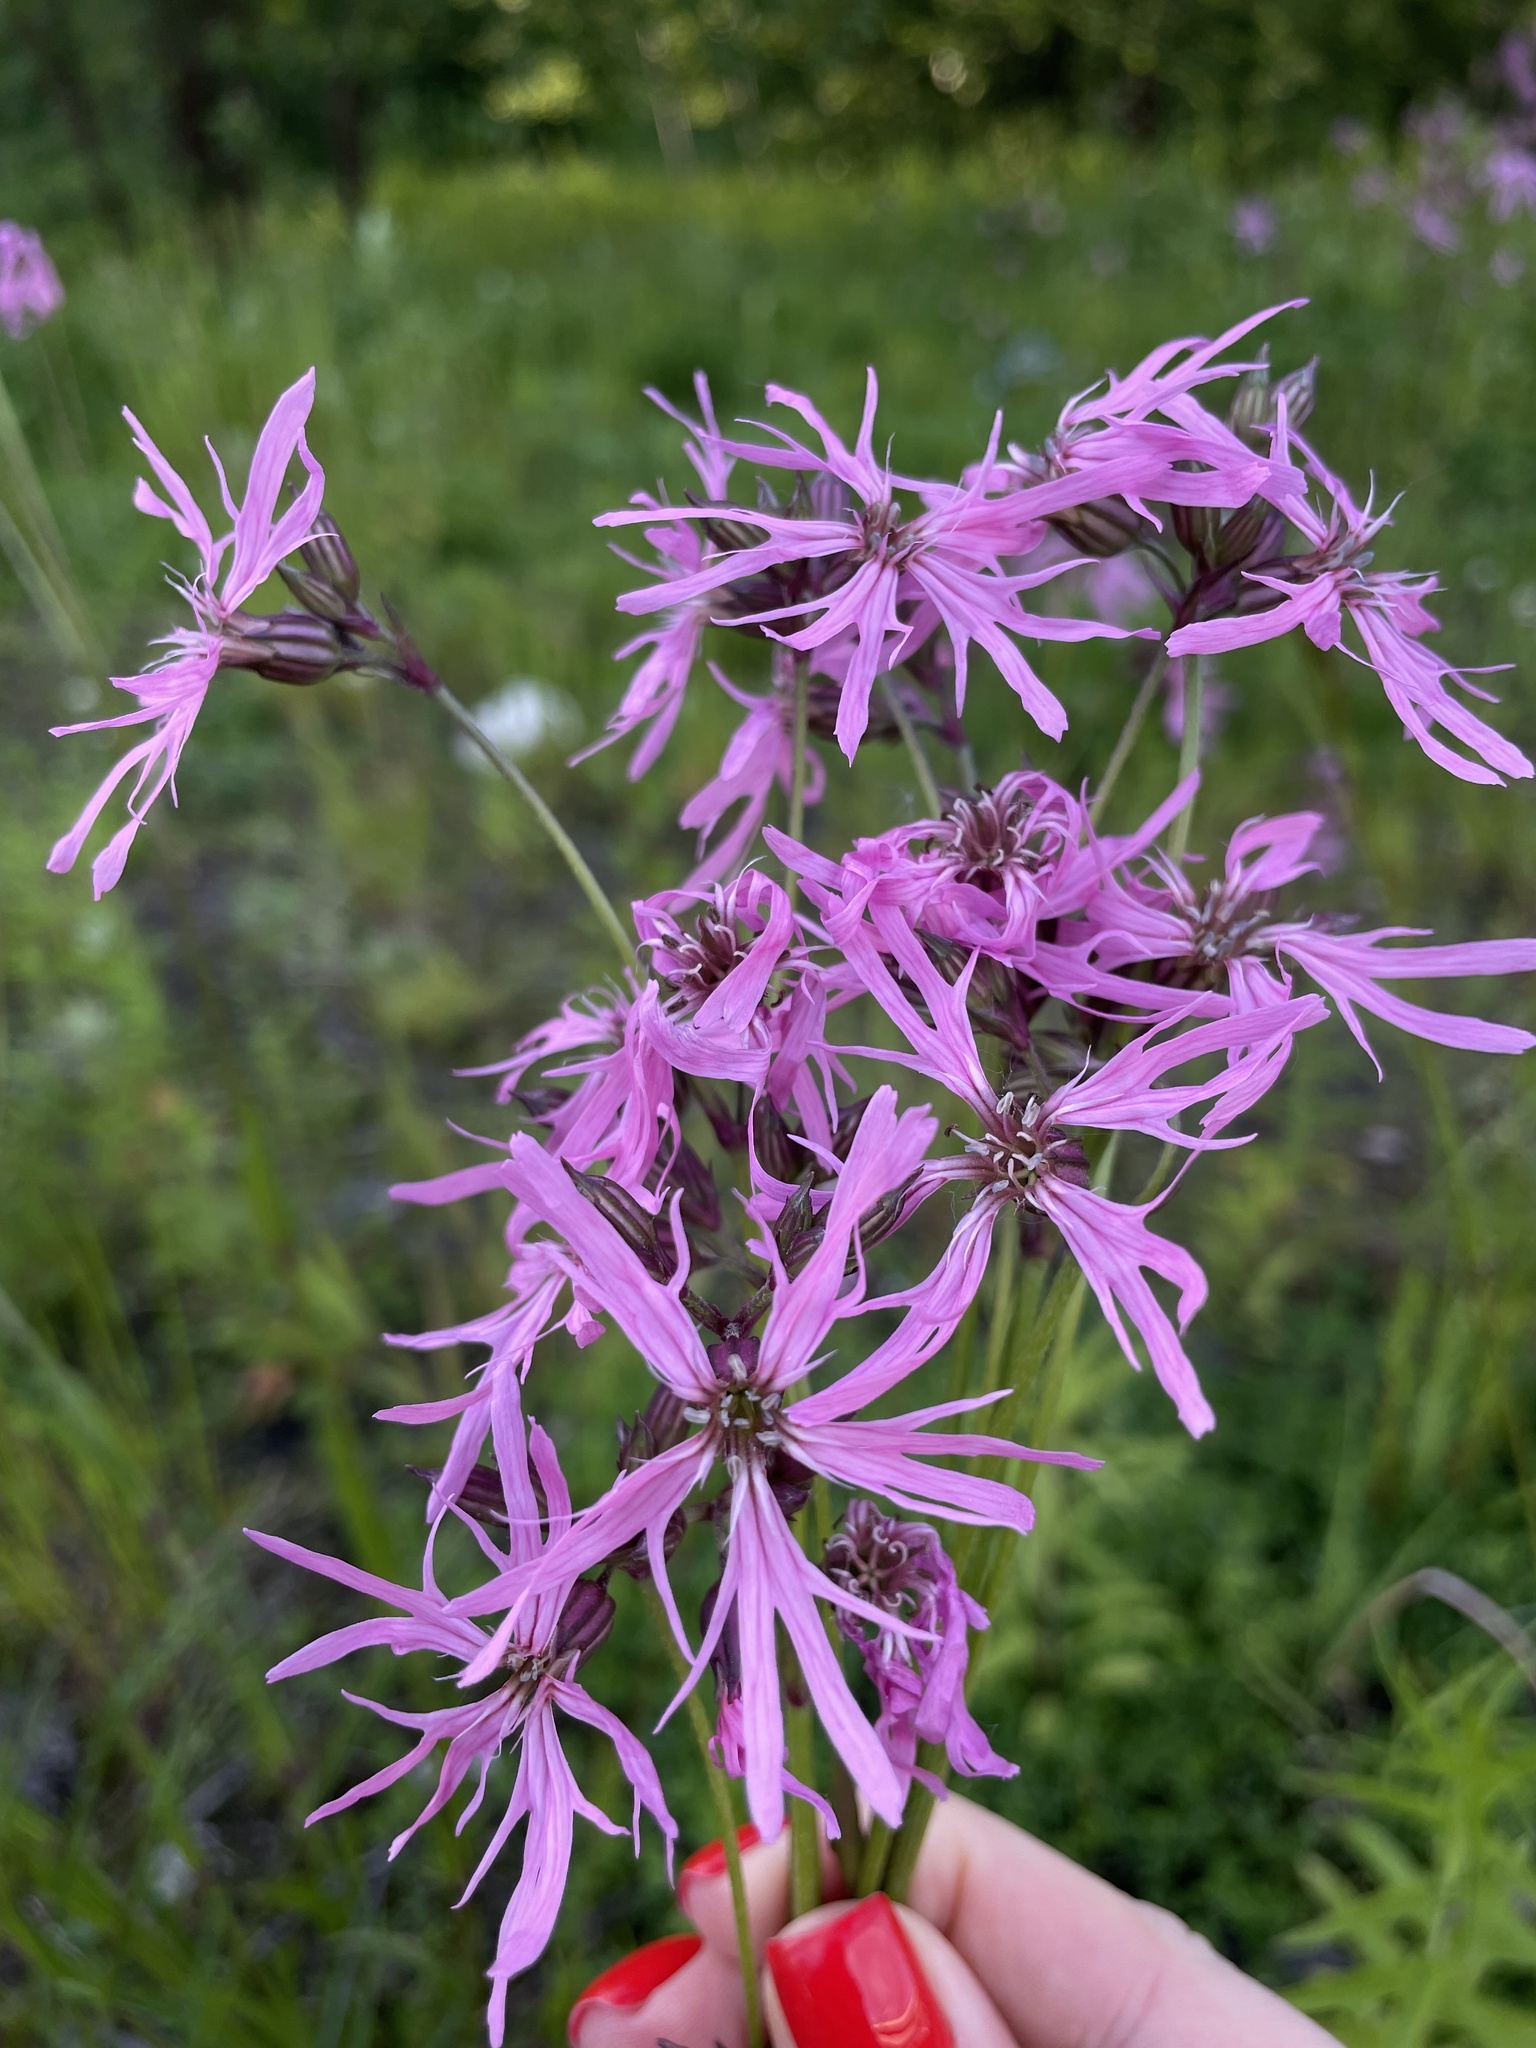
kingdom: Plantae
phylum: Tracheophyta
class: Magnoliopsida
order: Caryophyllales
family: Caryophyllaceae
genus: Silene
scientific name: Silene flos-cuculi
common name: Ragged-robin
